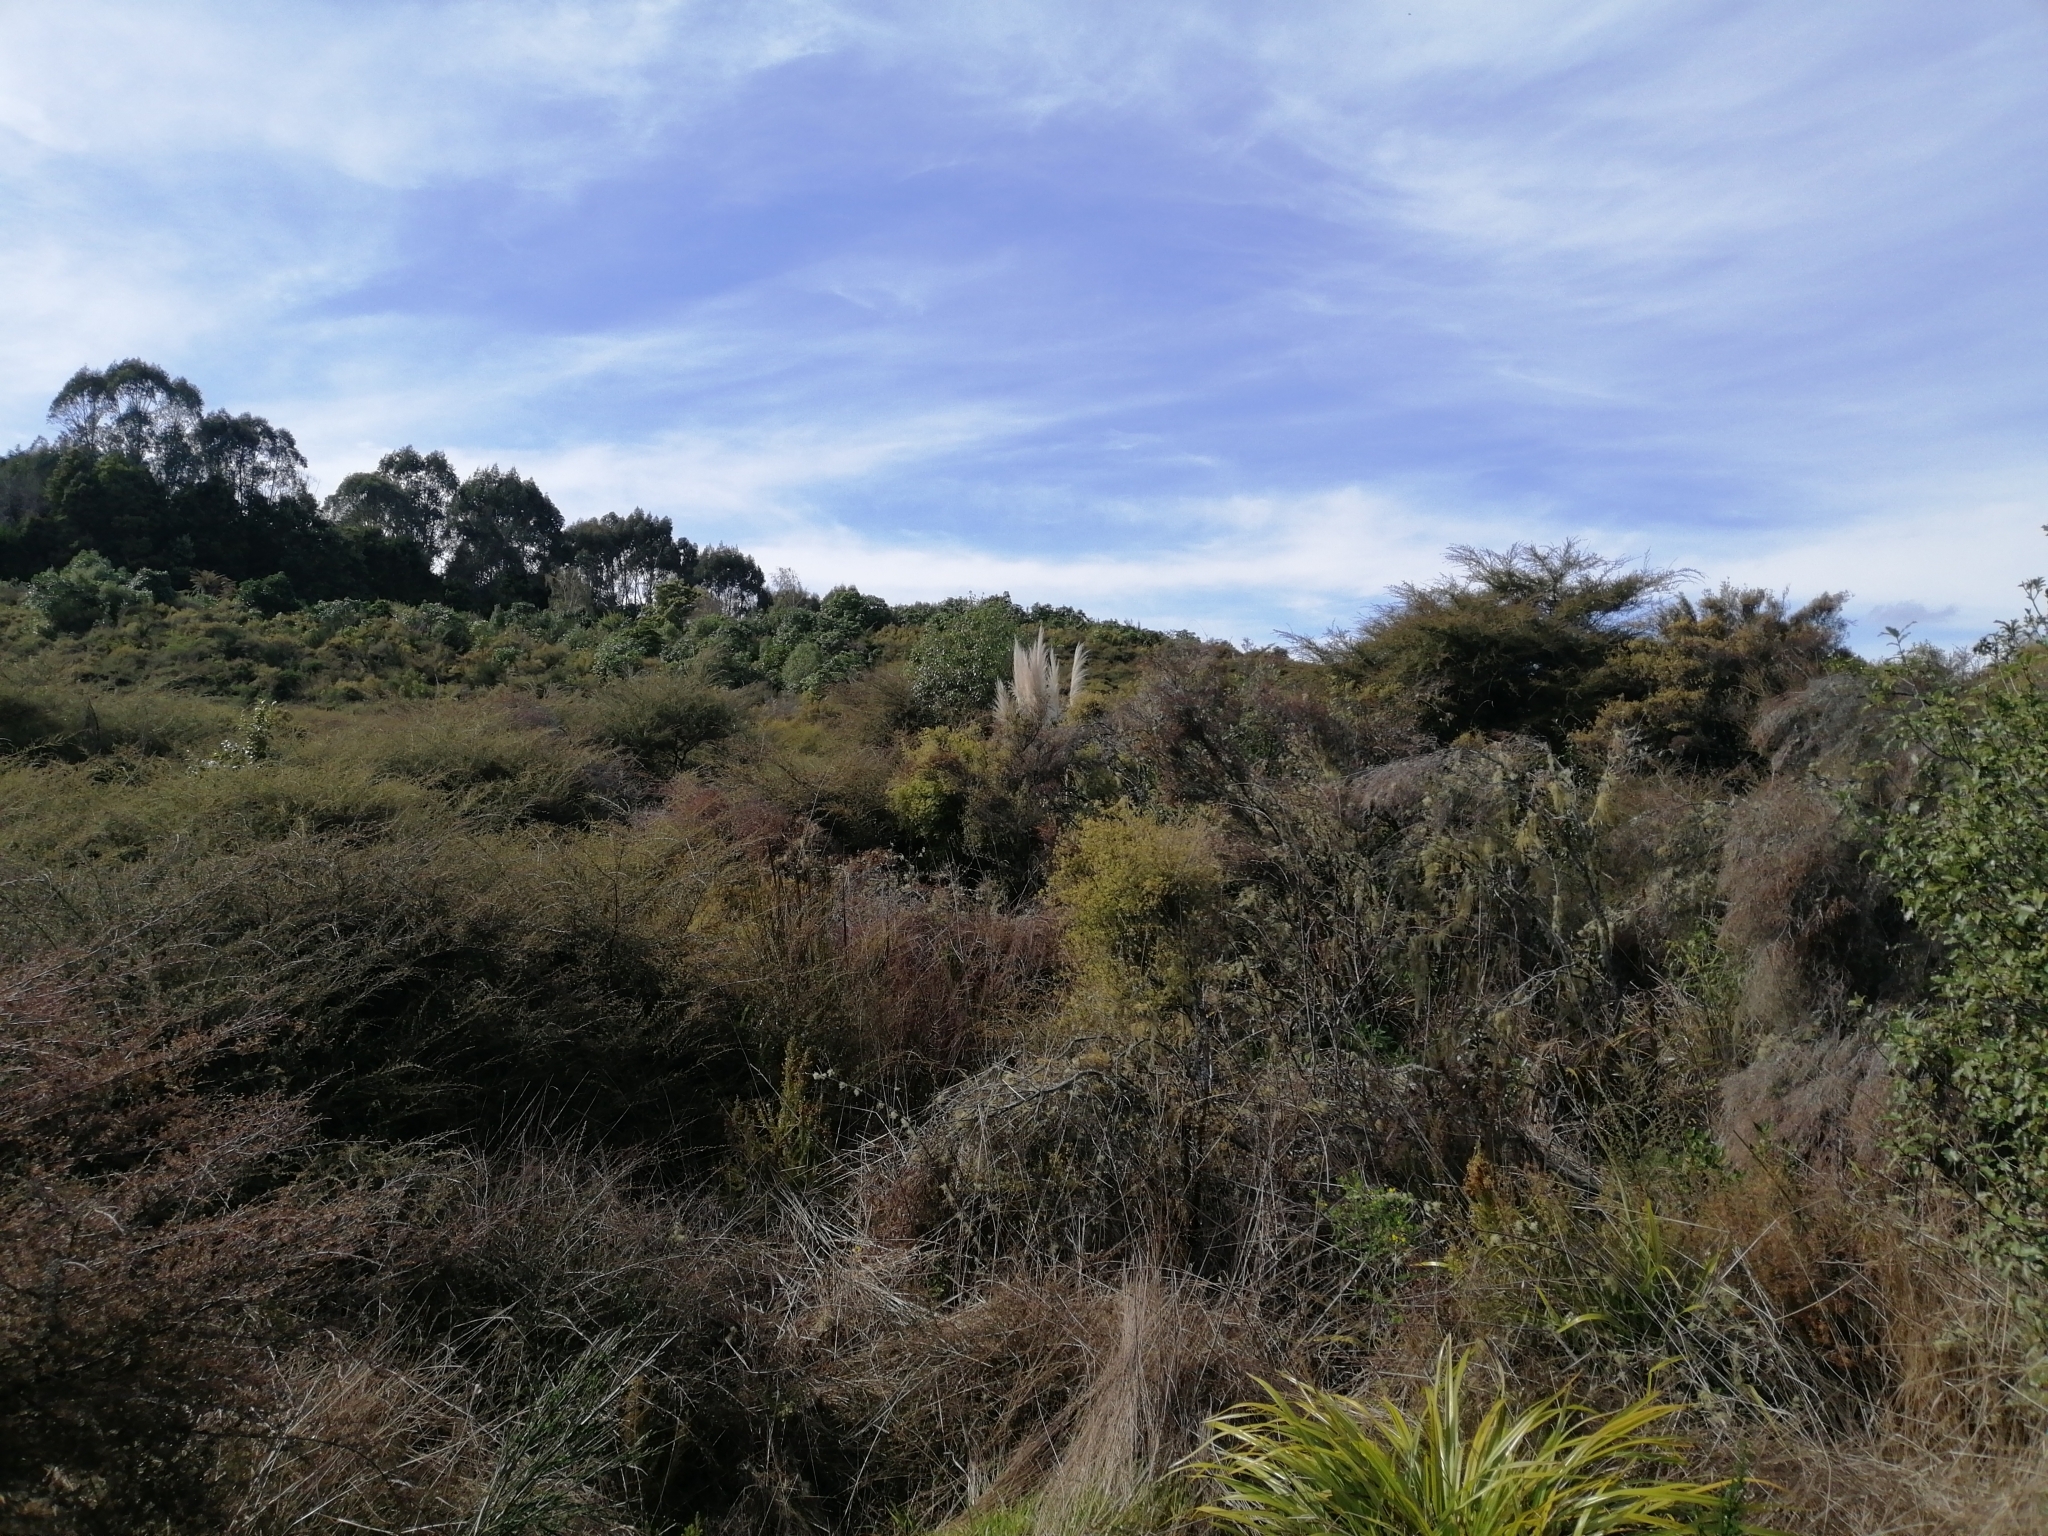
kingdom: Plantae
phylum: Tracheophyta
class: Liliopsida
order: Poales
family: Poaceae
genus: Cortaderia
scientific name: Cortaderia selloana
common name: Uruguayan pampas grass
